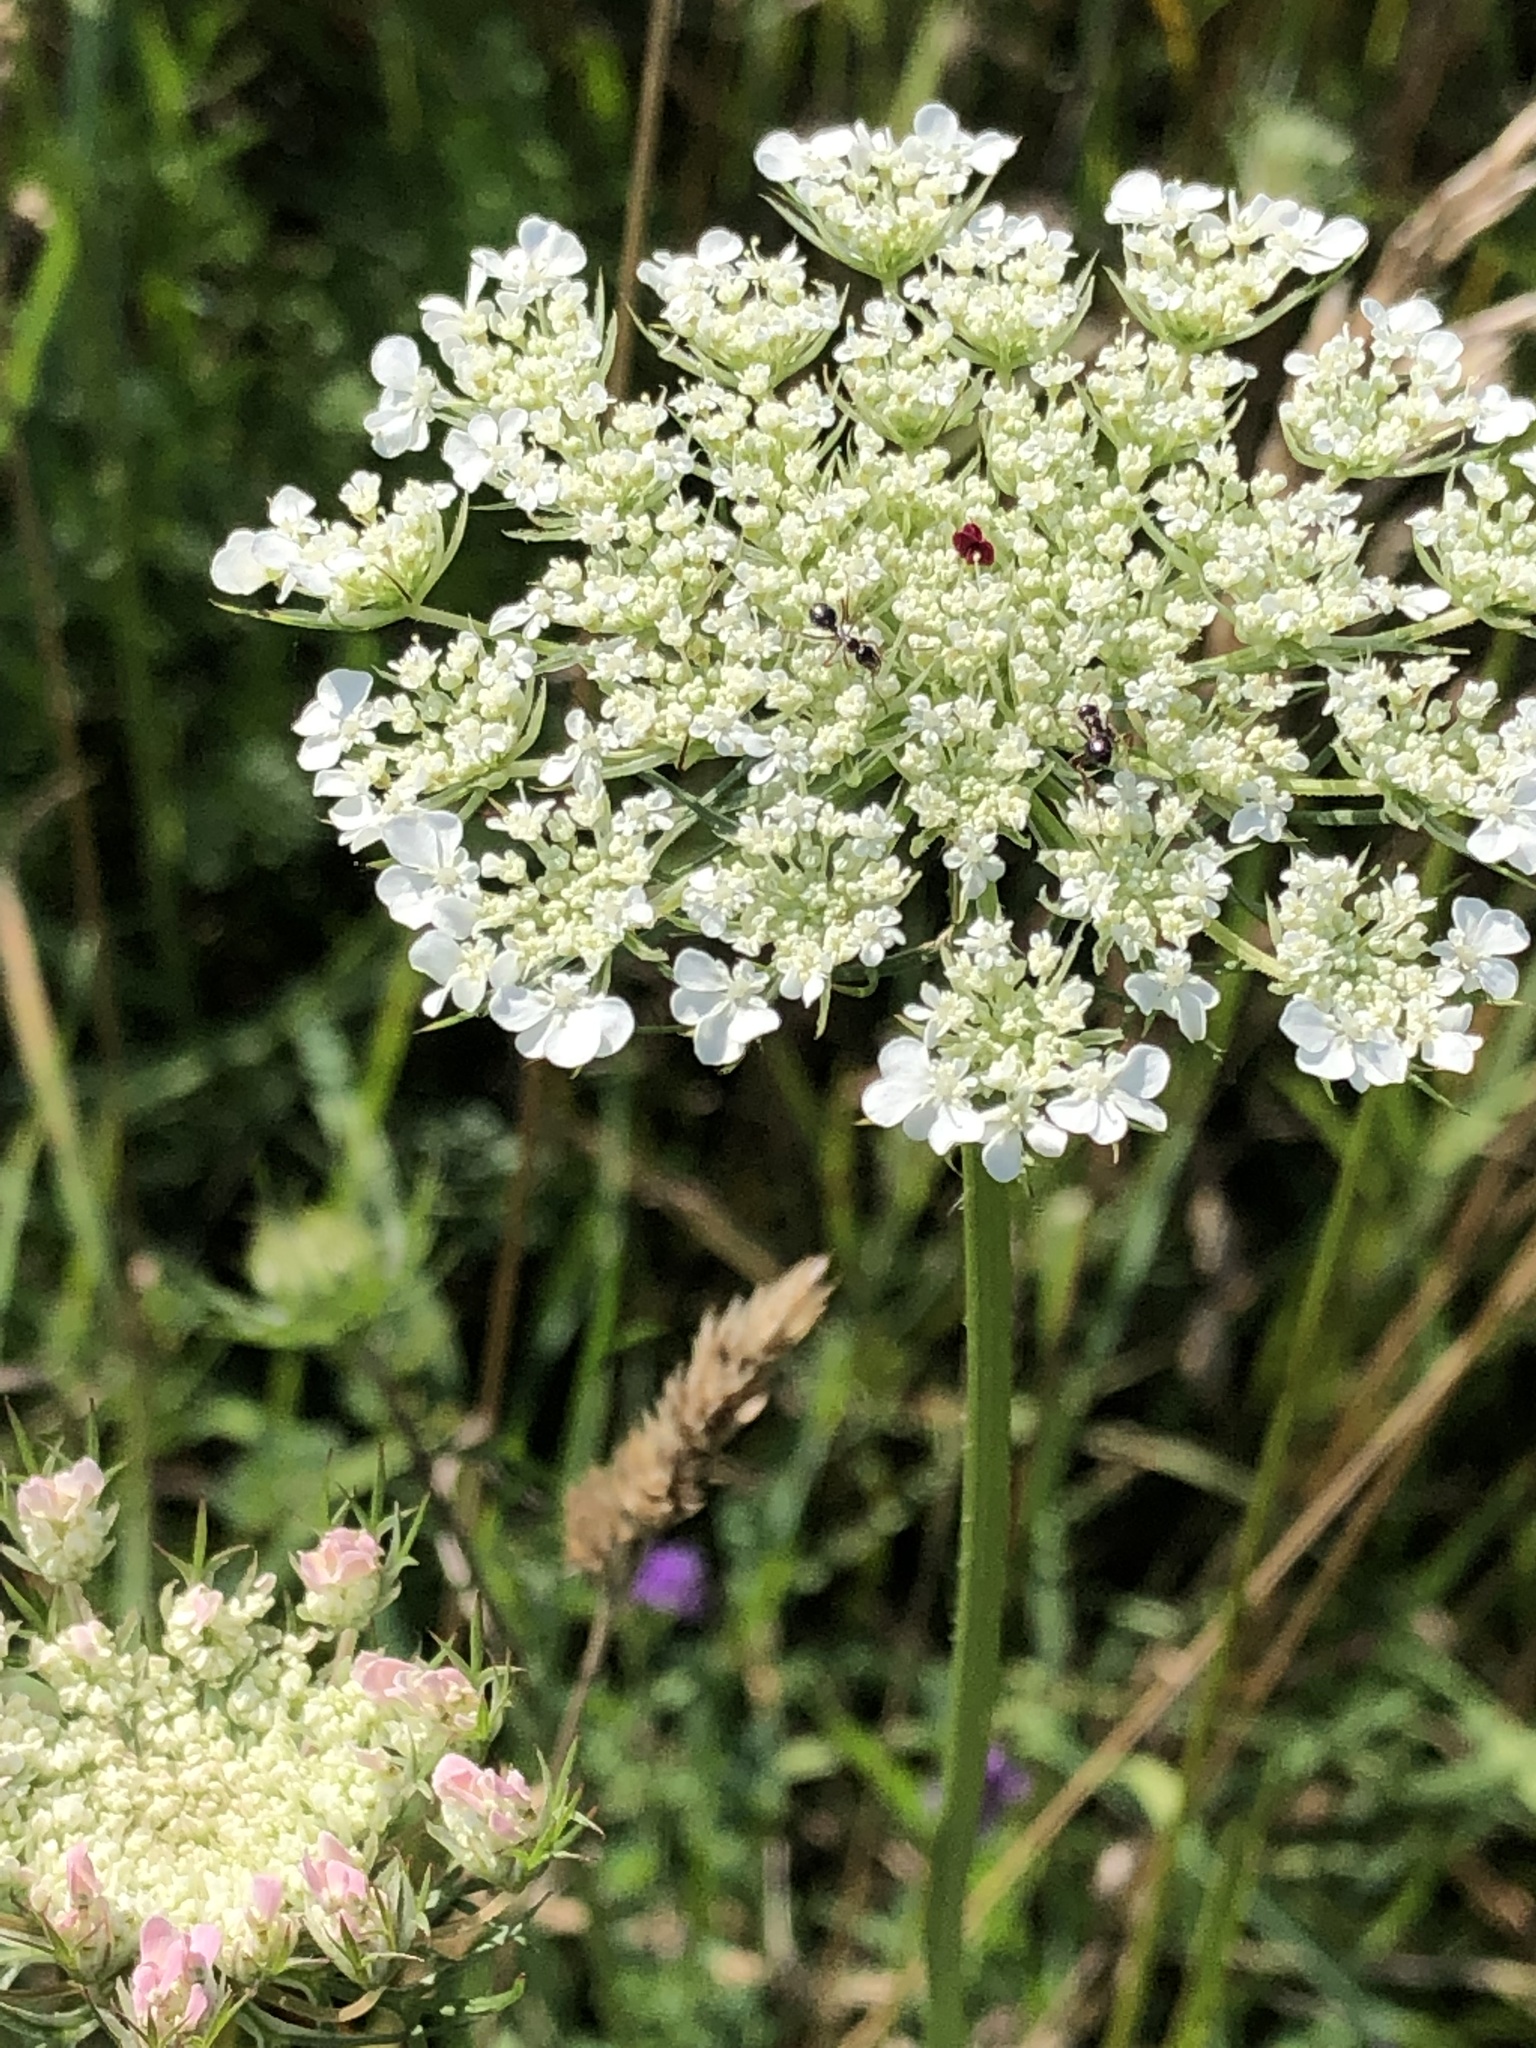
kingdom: Plantae
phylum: Tracheophyta
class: Magnoliopsida
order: Apiales
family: Apiaceae
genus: Daucus
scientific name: Daucus carota
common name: Wild carrot
